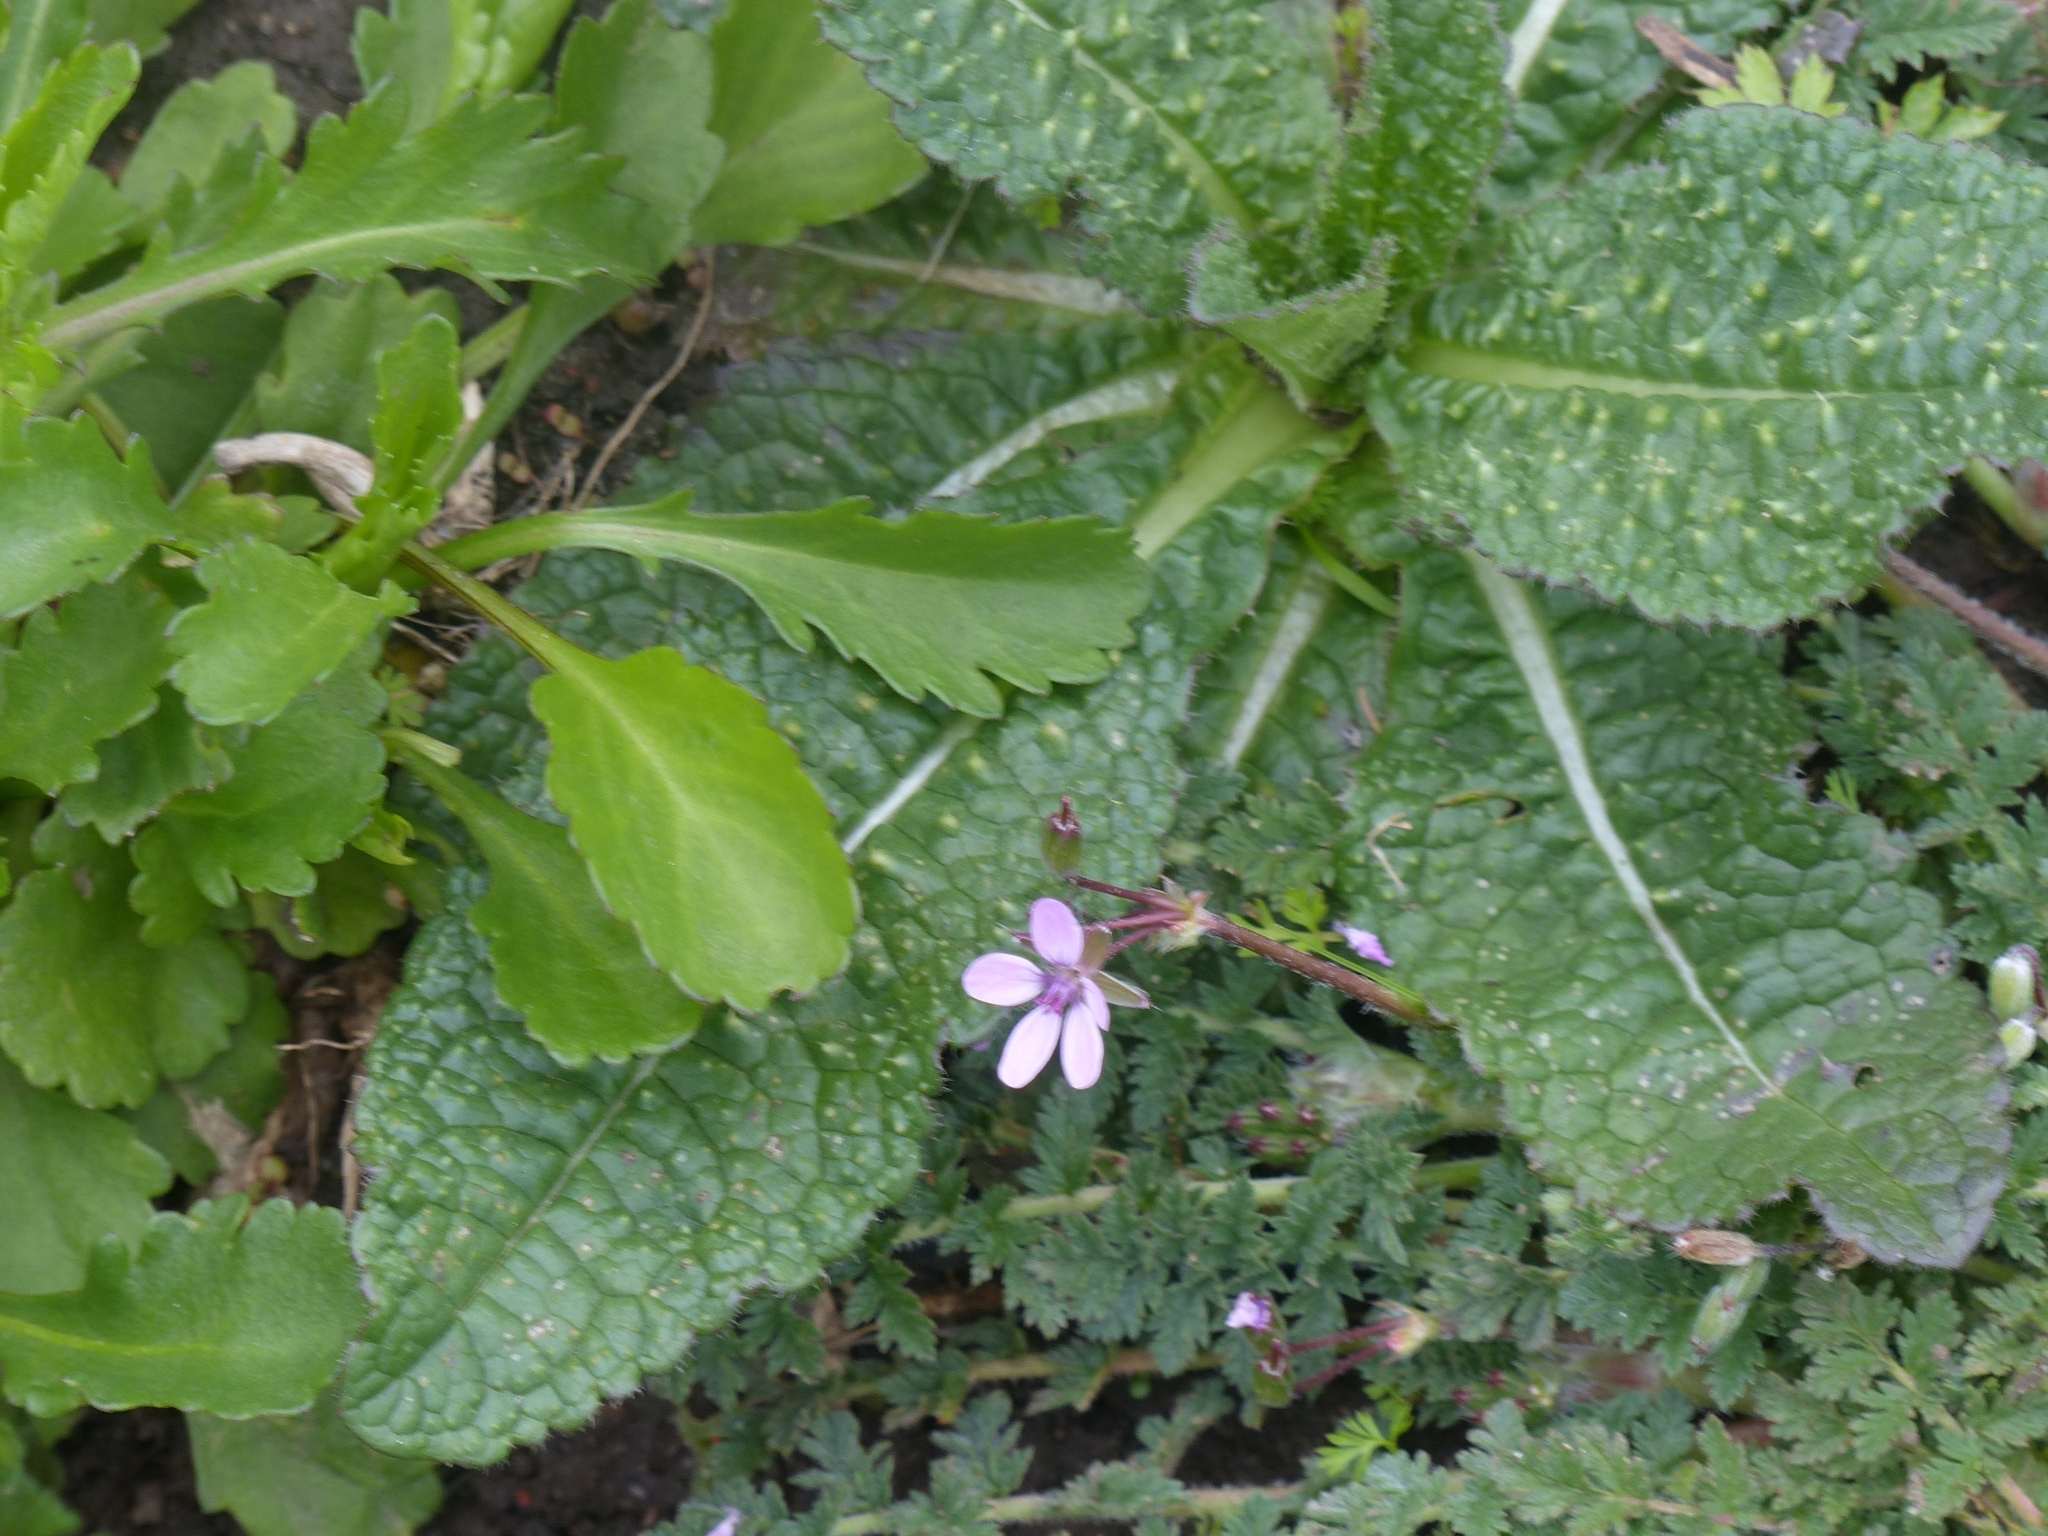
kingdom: Plantae
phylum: Tracheophyta
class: Magnoliopsida
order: Geraniales
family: Geraniaceae
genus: Erodium
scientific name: Erodium cicutarium
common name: Common stork's-bill
